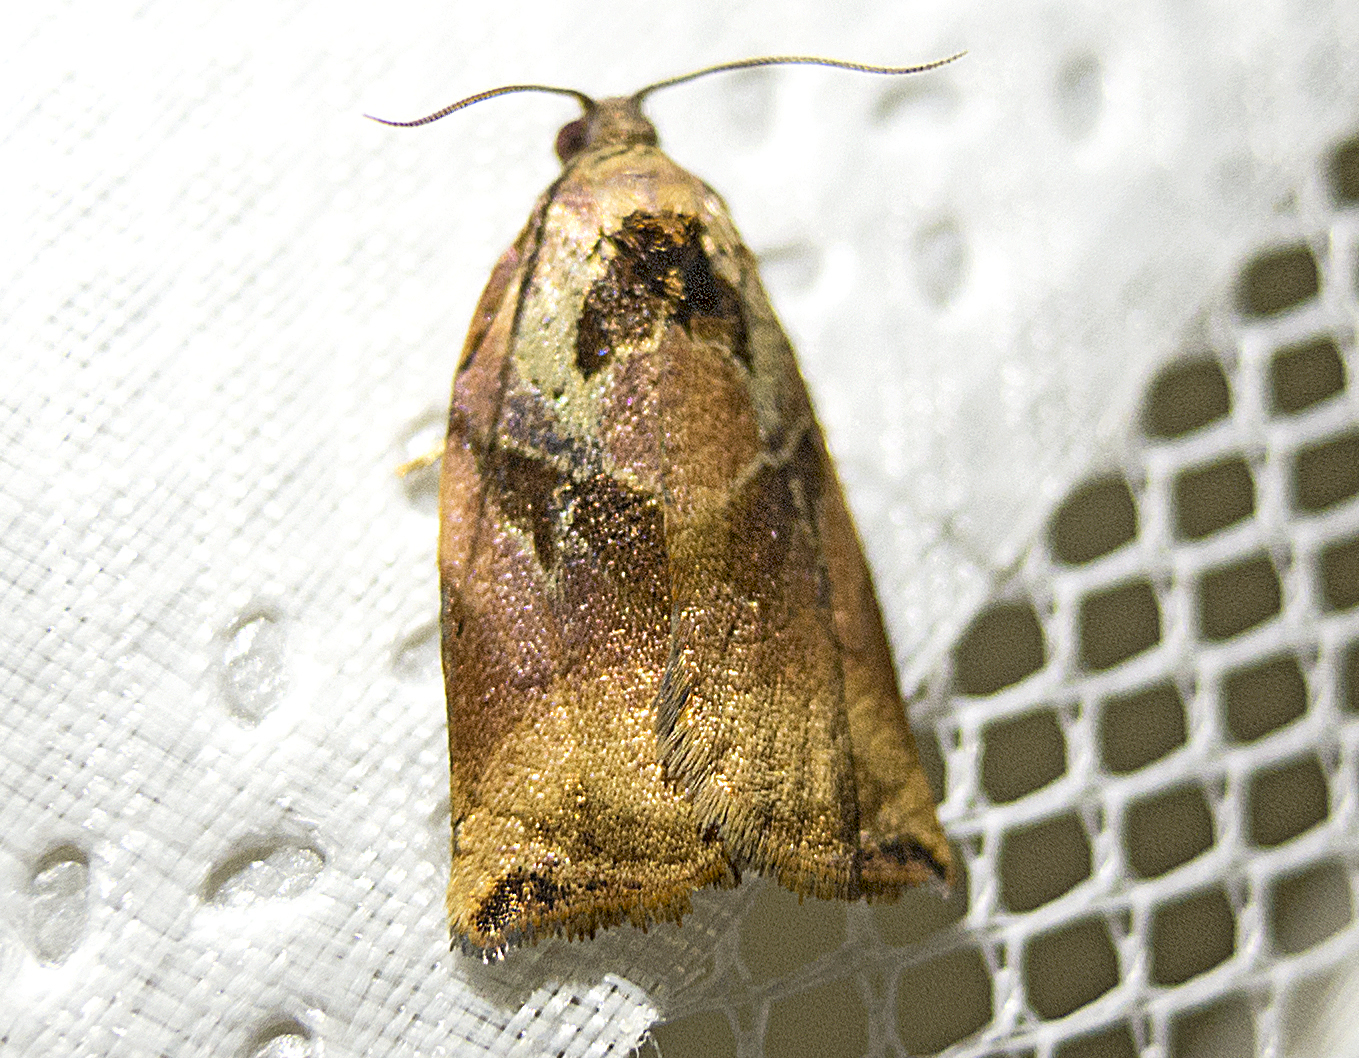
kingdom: Animalia
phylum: Arthropoda
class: Insecta
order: Lepidoptera
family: Tortricidae
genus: Archips
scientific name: Archips podana
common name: Large fruit-tree tortrix
